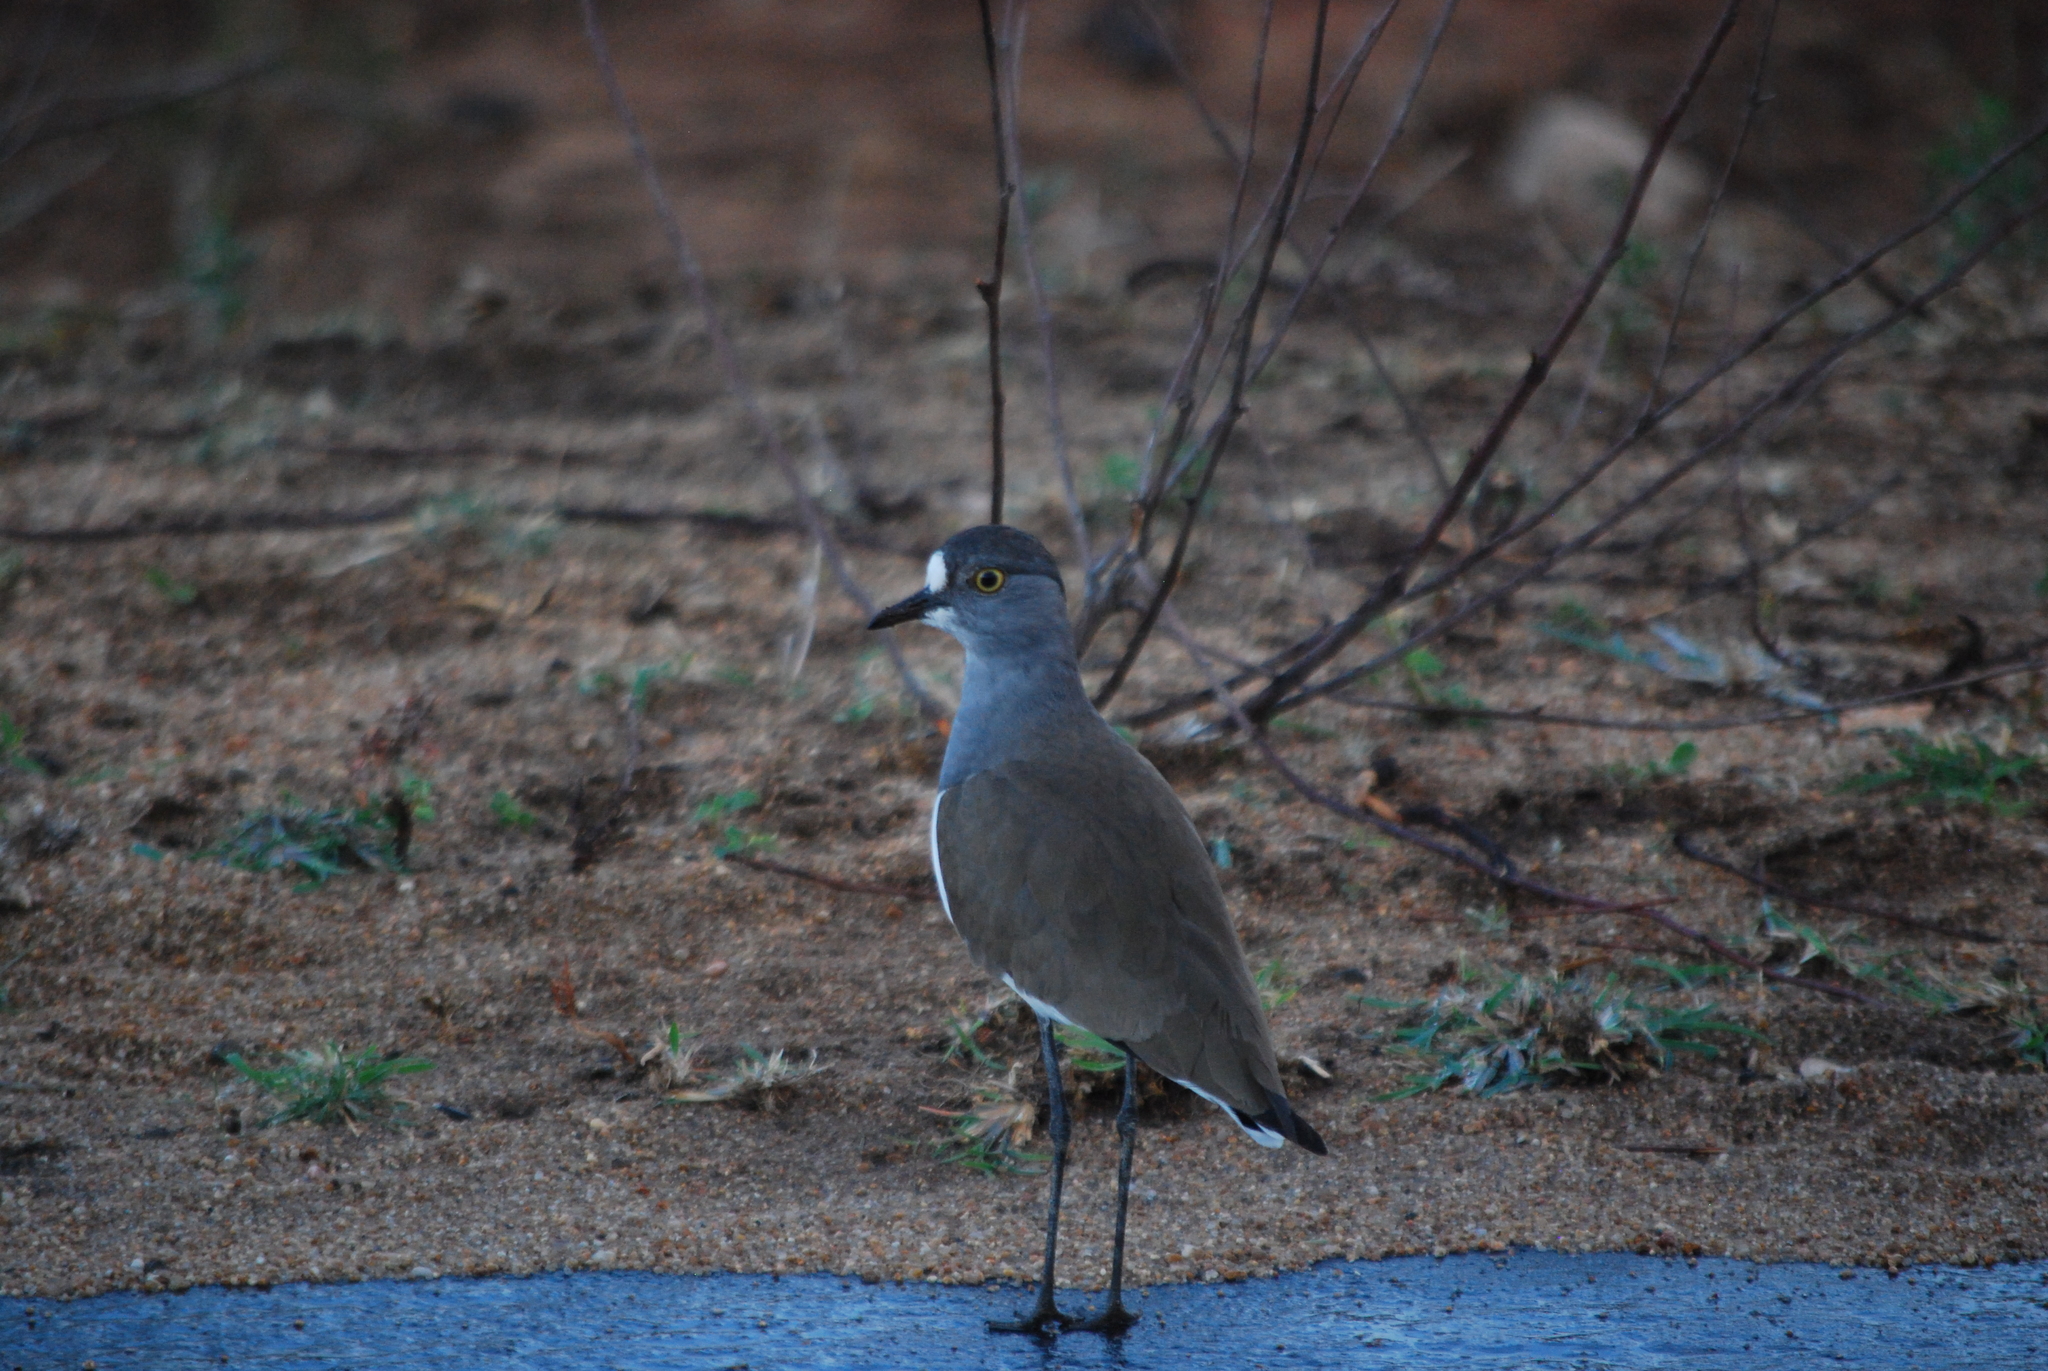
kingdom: Animalia
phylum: Chordata
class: Aves
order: Charadriiformes
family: Charadriidae
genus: Vanellus
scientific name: Vanellus lugubris
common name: Senegal lapwing
